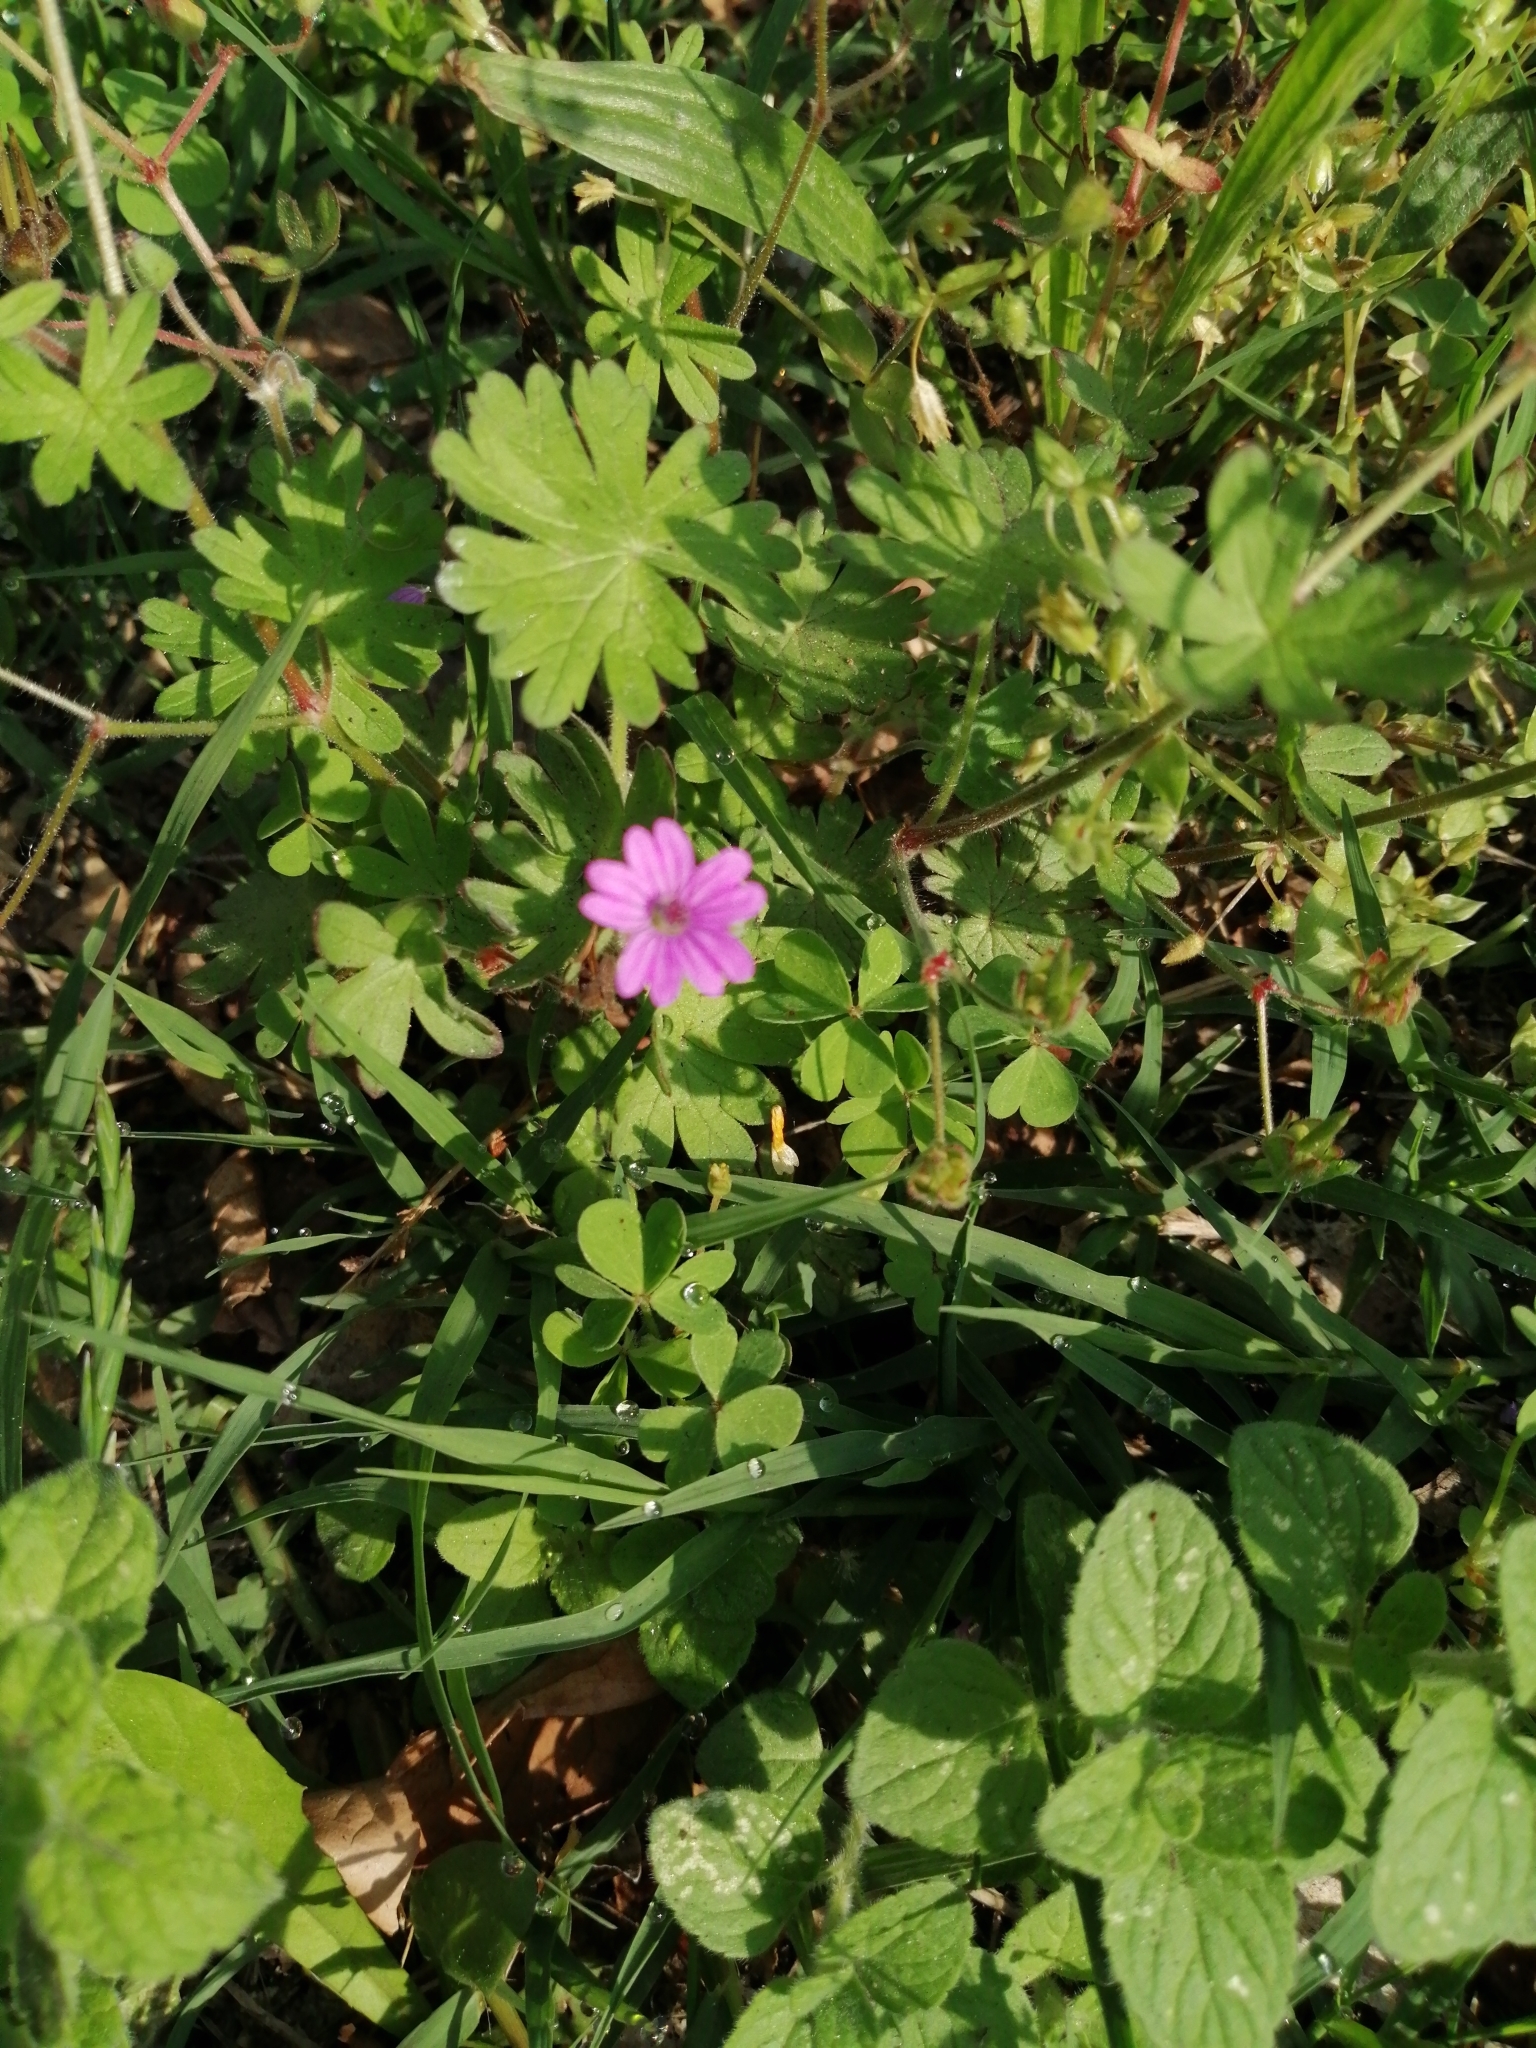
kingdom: Plantae
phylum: Tracheophyta
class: Magnoliopsida
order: Geraniales
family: Geraniaceae
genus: Geranium
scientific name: Geranium molle
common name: Dove's-foot crane's-bill
